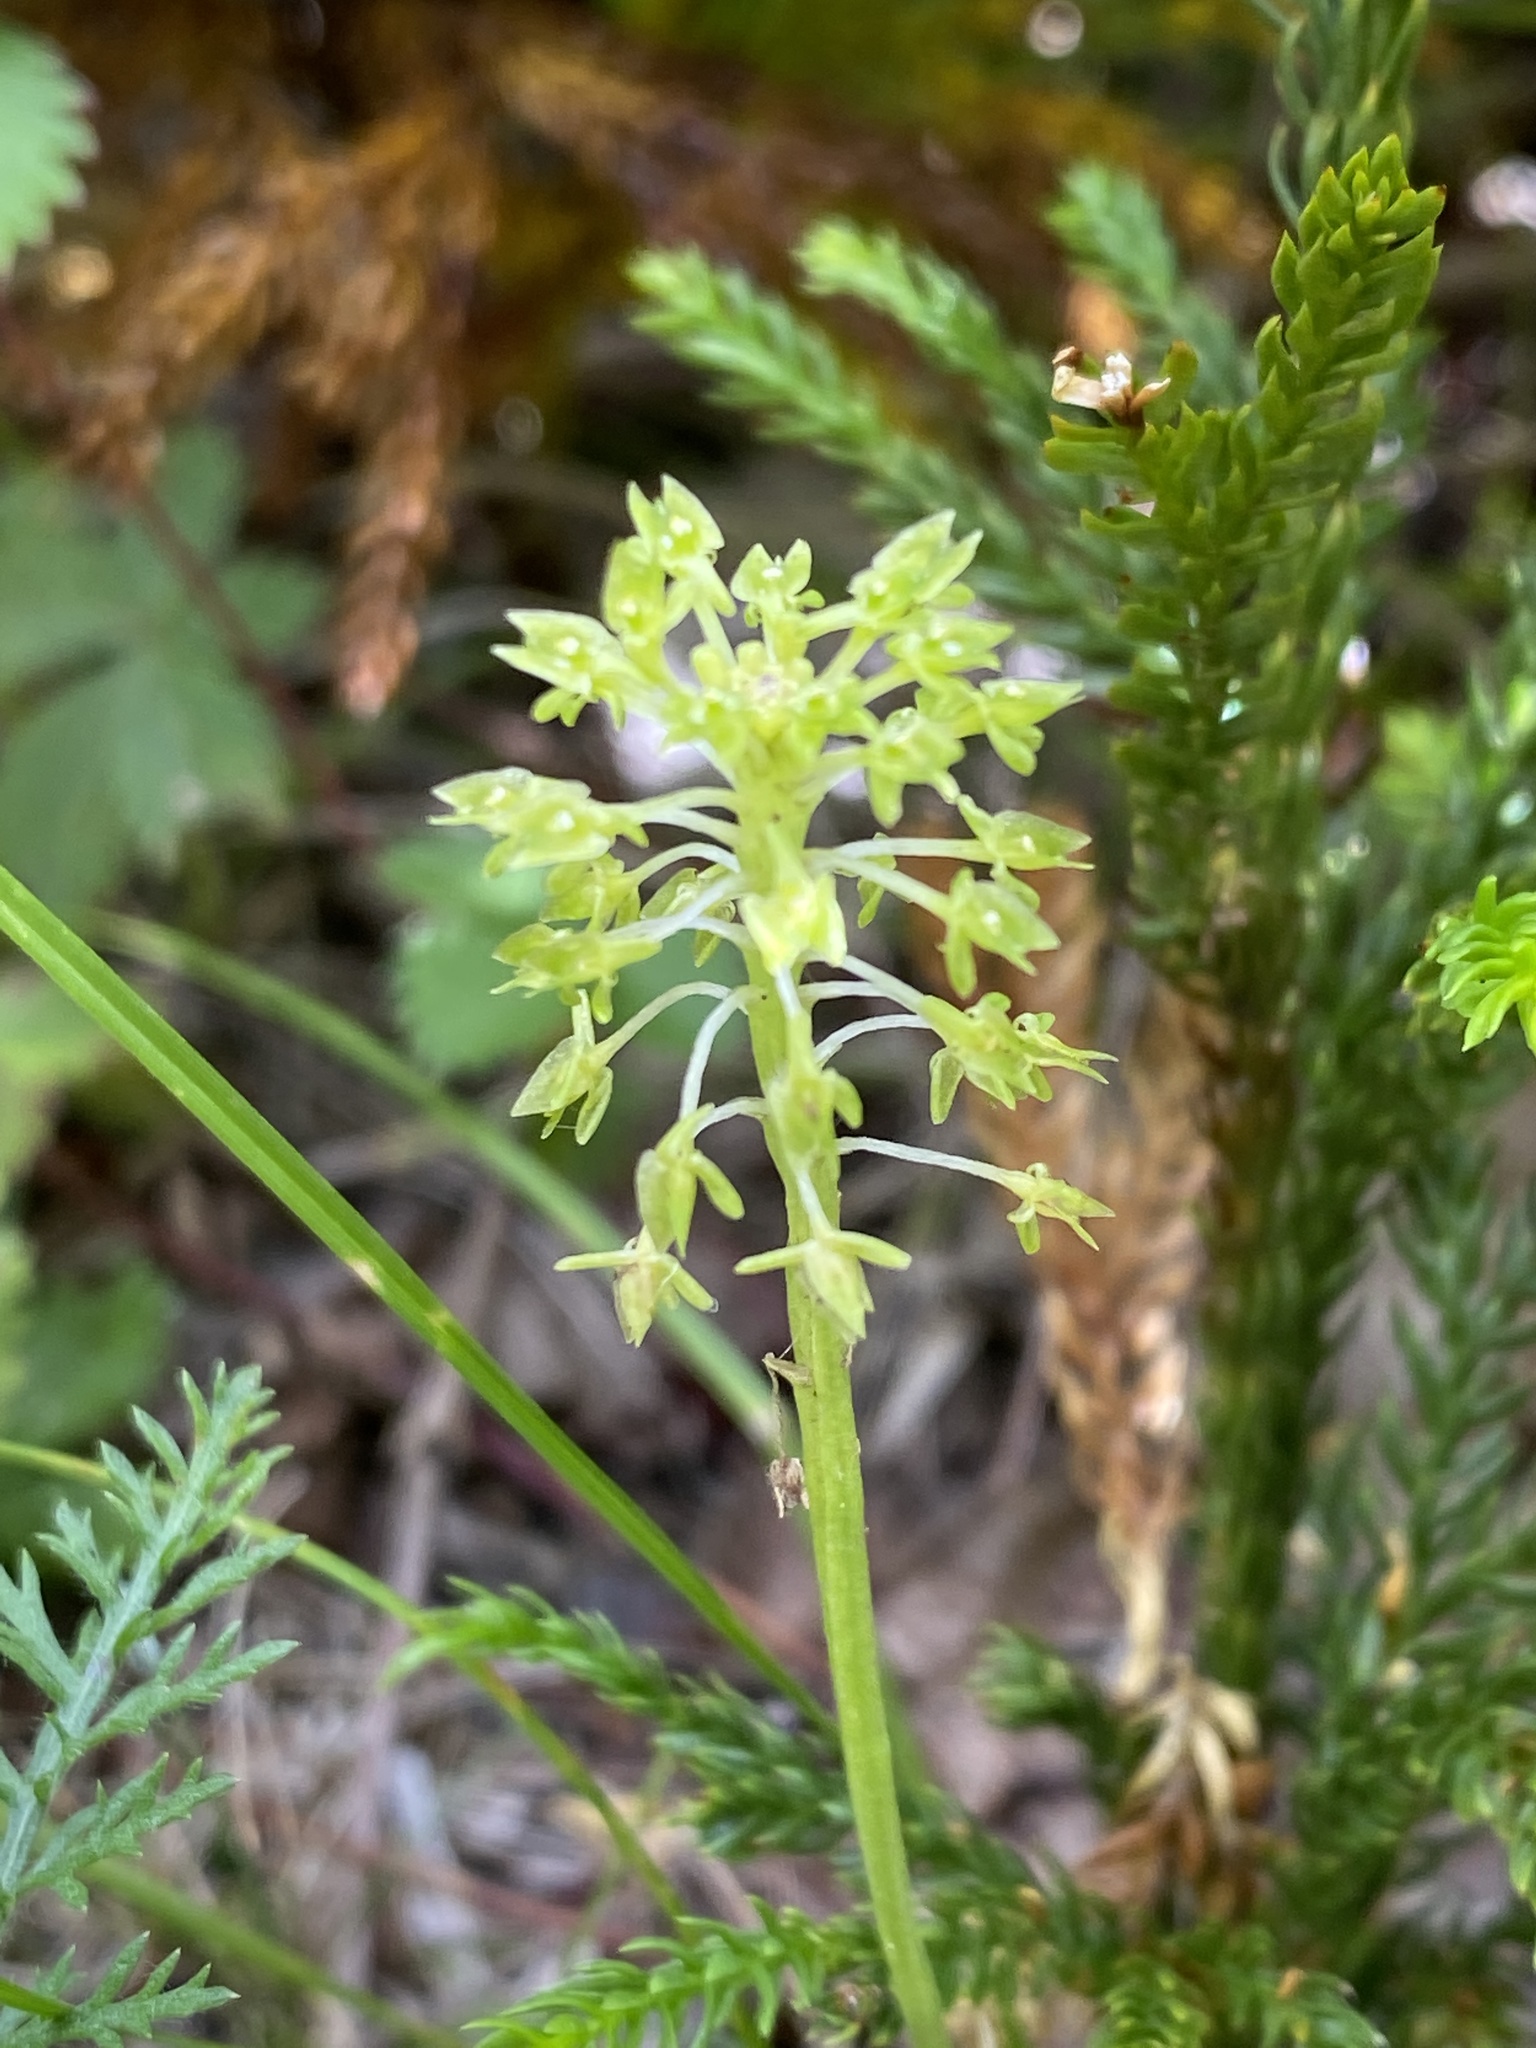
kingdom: Plantae
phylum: Tracheophyta
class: Liliopsida
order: Asparagales
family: Orchidaceae
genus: Malaxis
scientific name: Malaxis unifolia
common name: Green adder's-mouth
